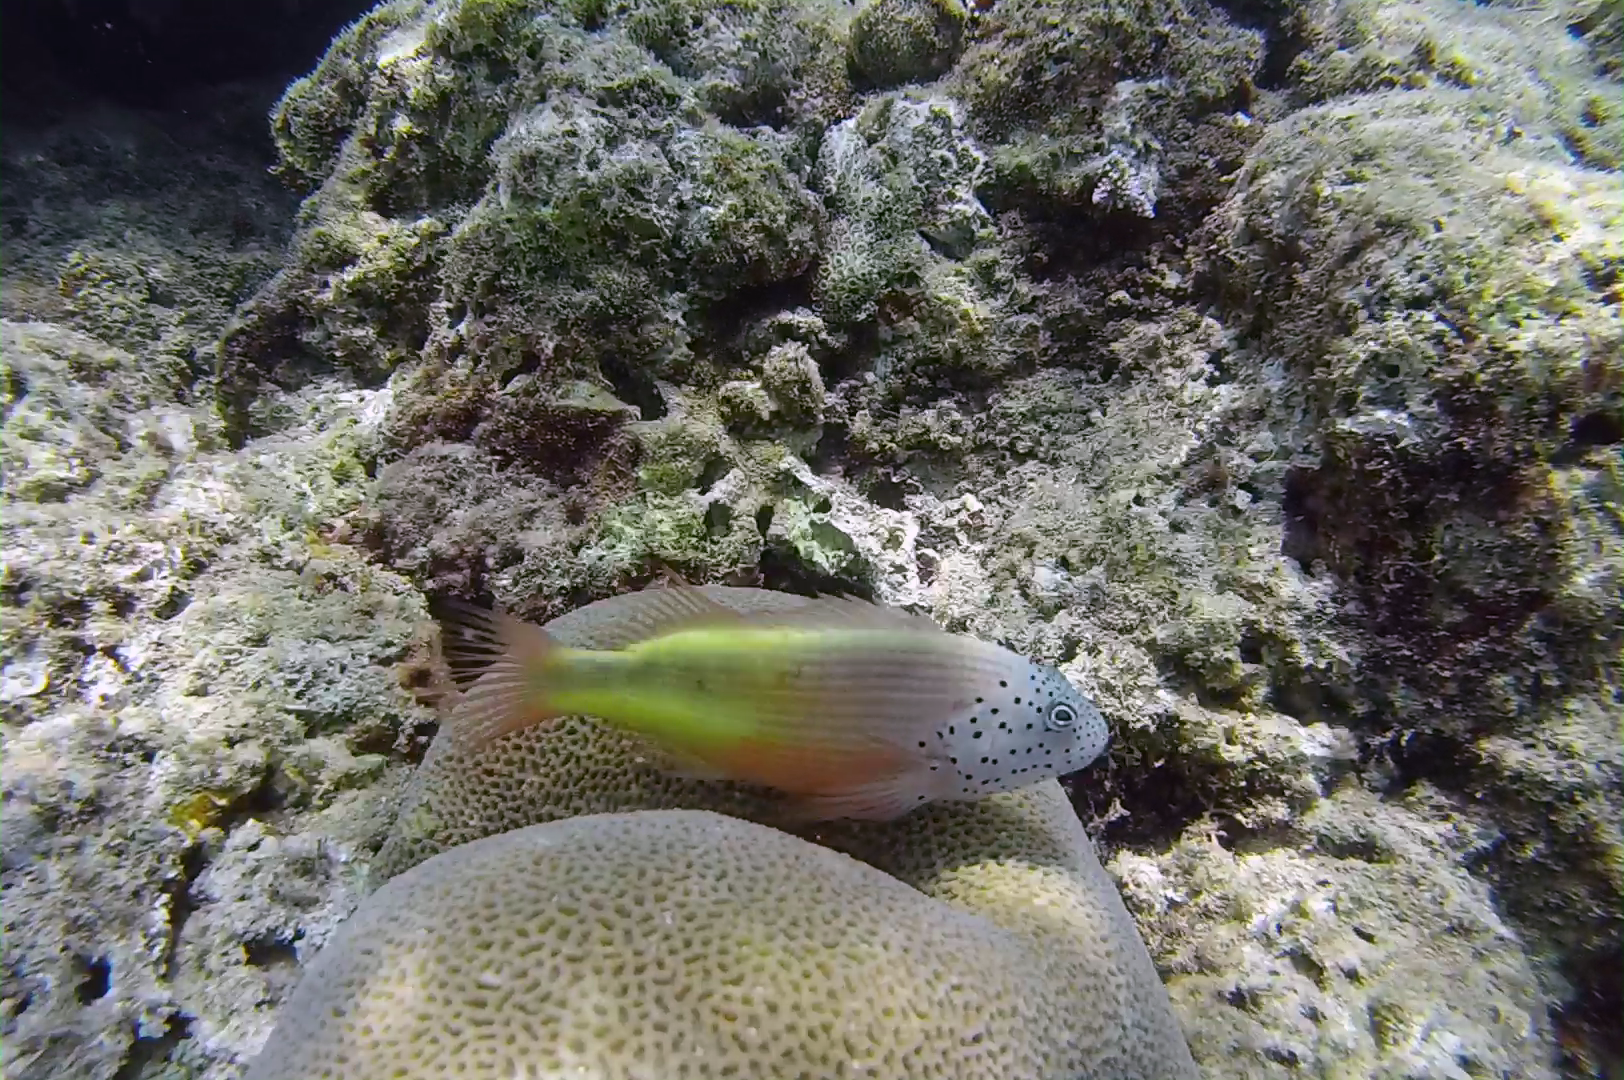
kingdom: Animalia
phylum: Chordata
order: Perciformes
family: Cirrhitidae
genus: Paracirrhites
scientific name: Paracirrhites forsteri
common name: Freckled hawkfish
